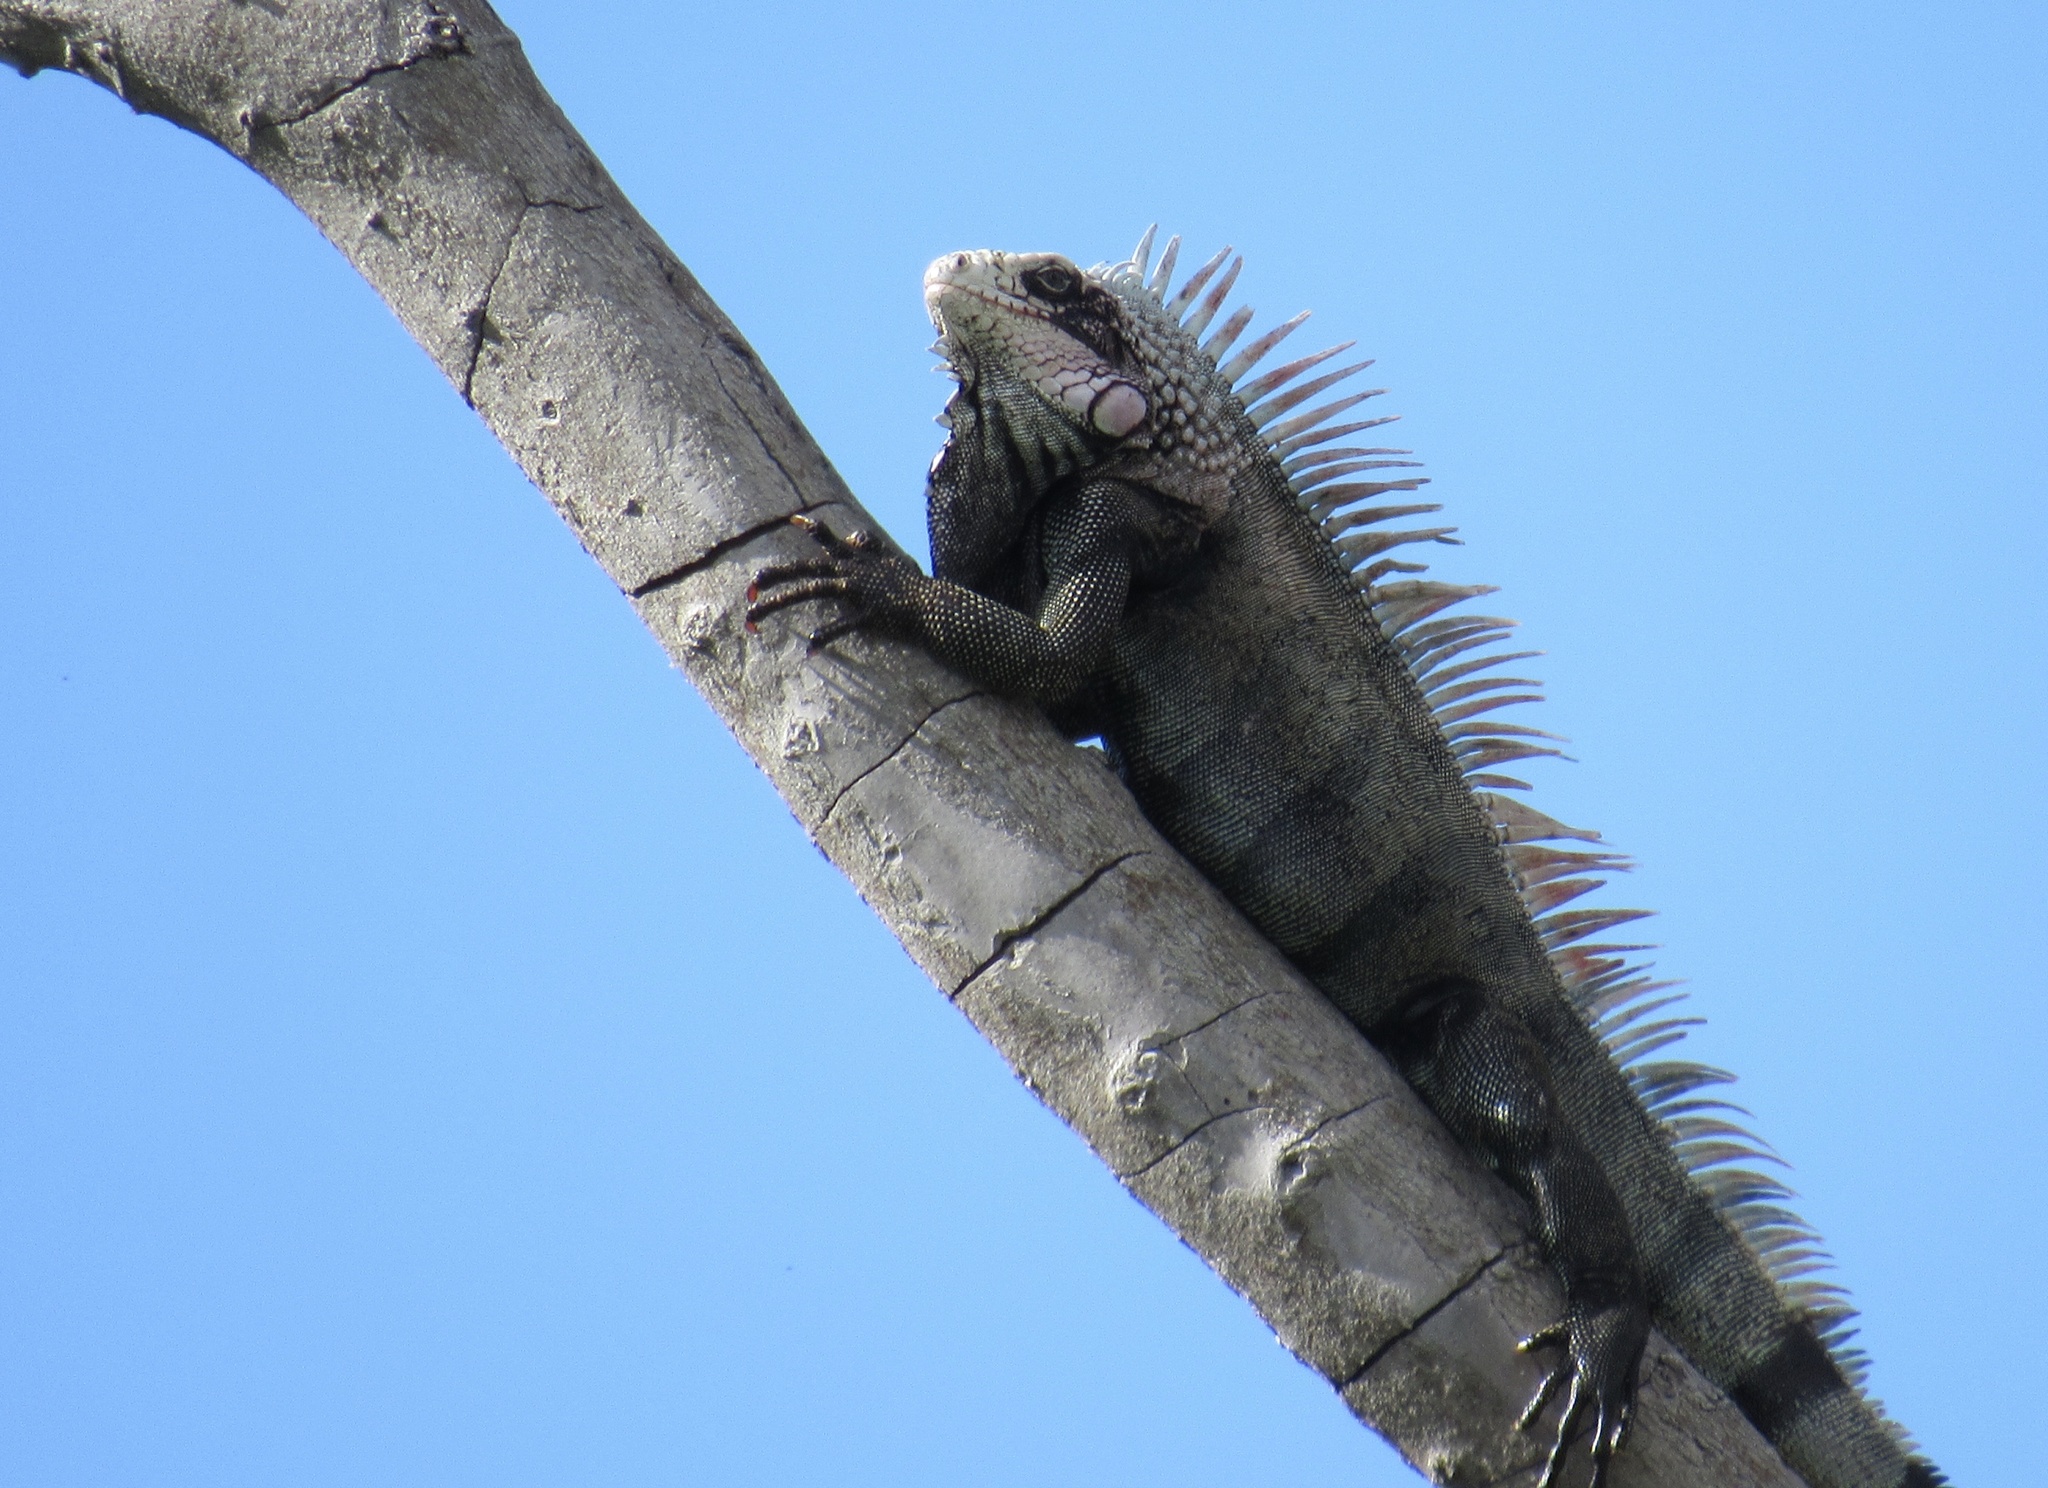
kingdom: Animalia
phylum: Chordata
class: Squamata
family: Iguanidae
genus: Iguana
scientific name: Iguana iguana
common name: Green iguana
